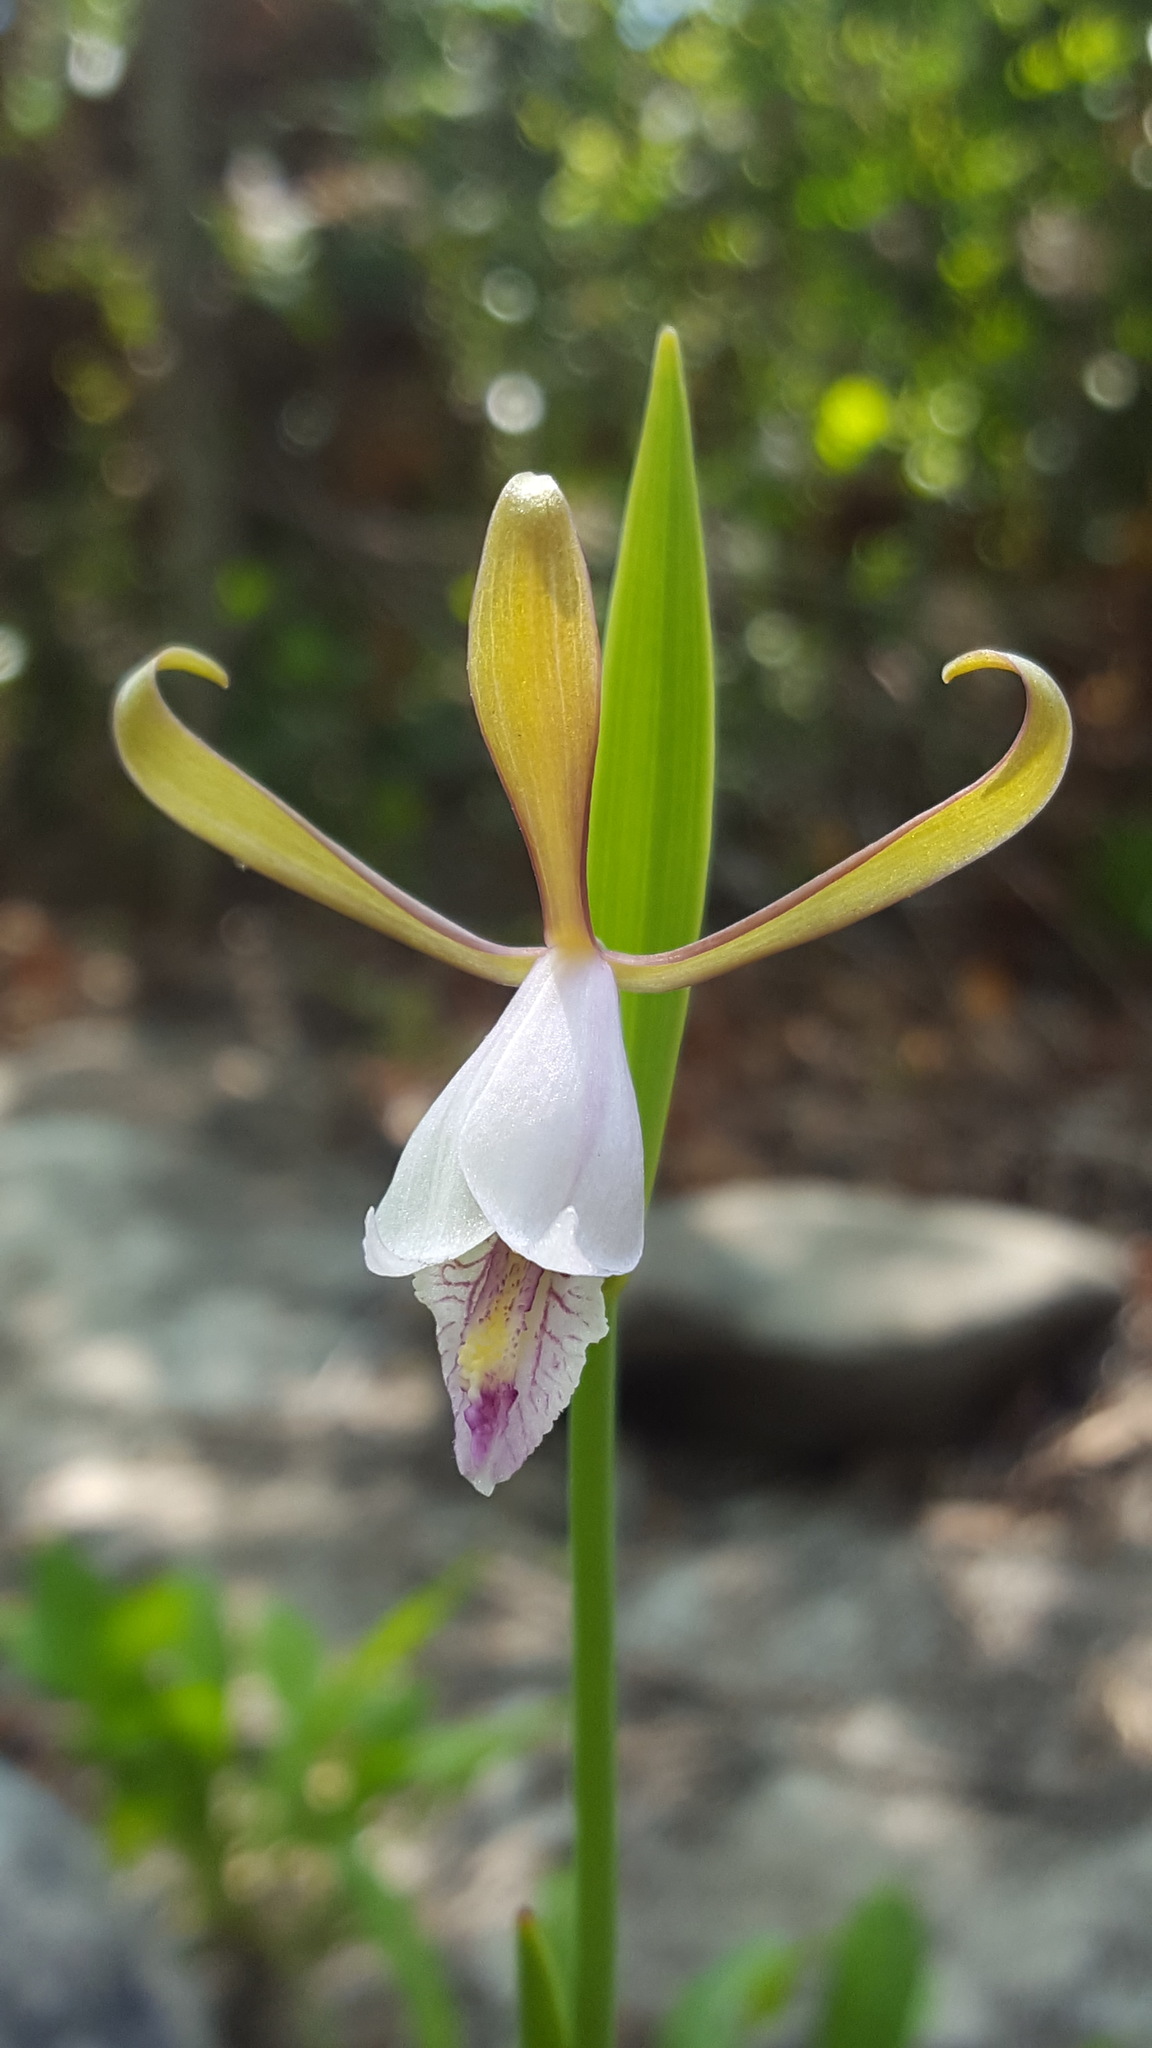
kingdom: Plantae
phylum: Tracheophyta
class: Liliopsida
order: Asparagales
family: Orchidaceae
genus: Cleistesiopsis
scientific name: Cleistesiopsis bifaria
